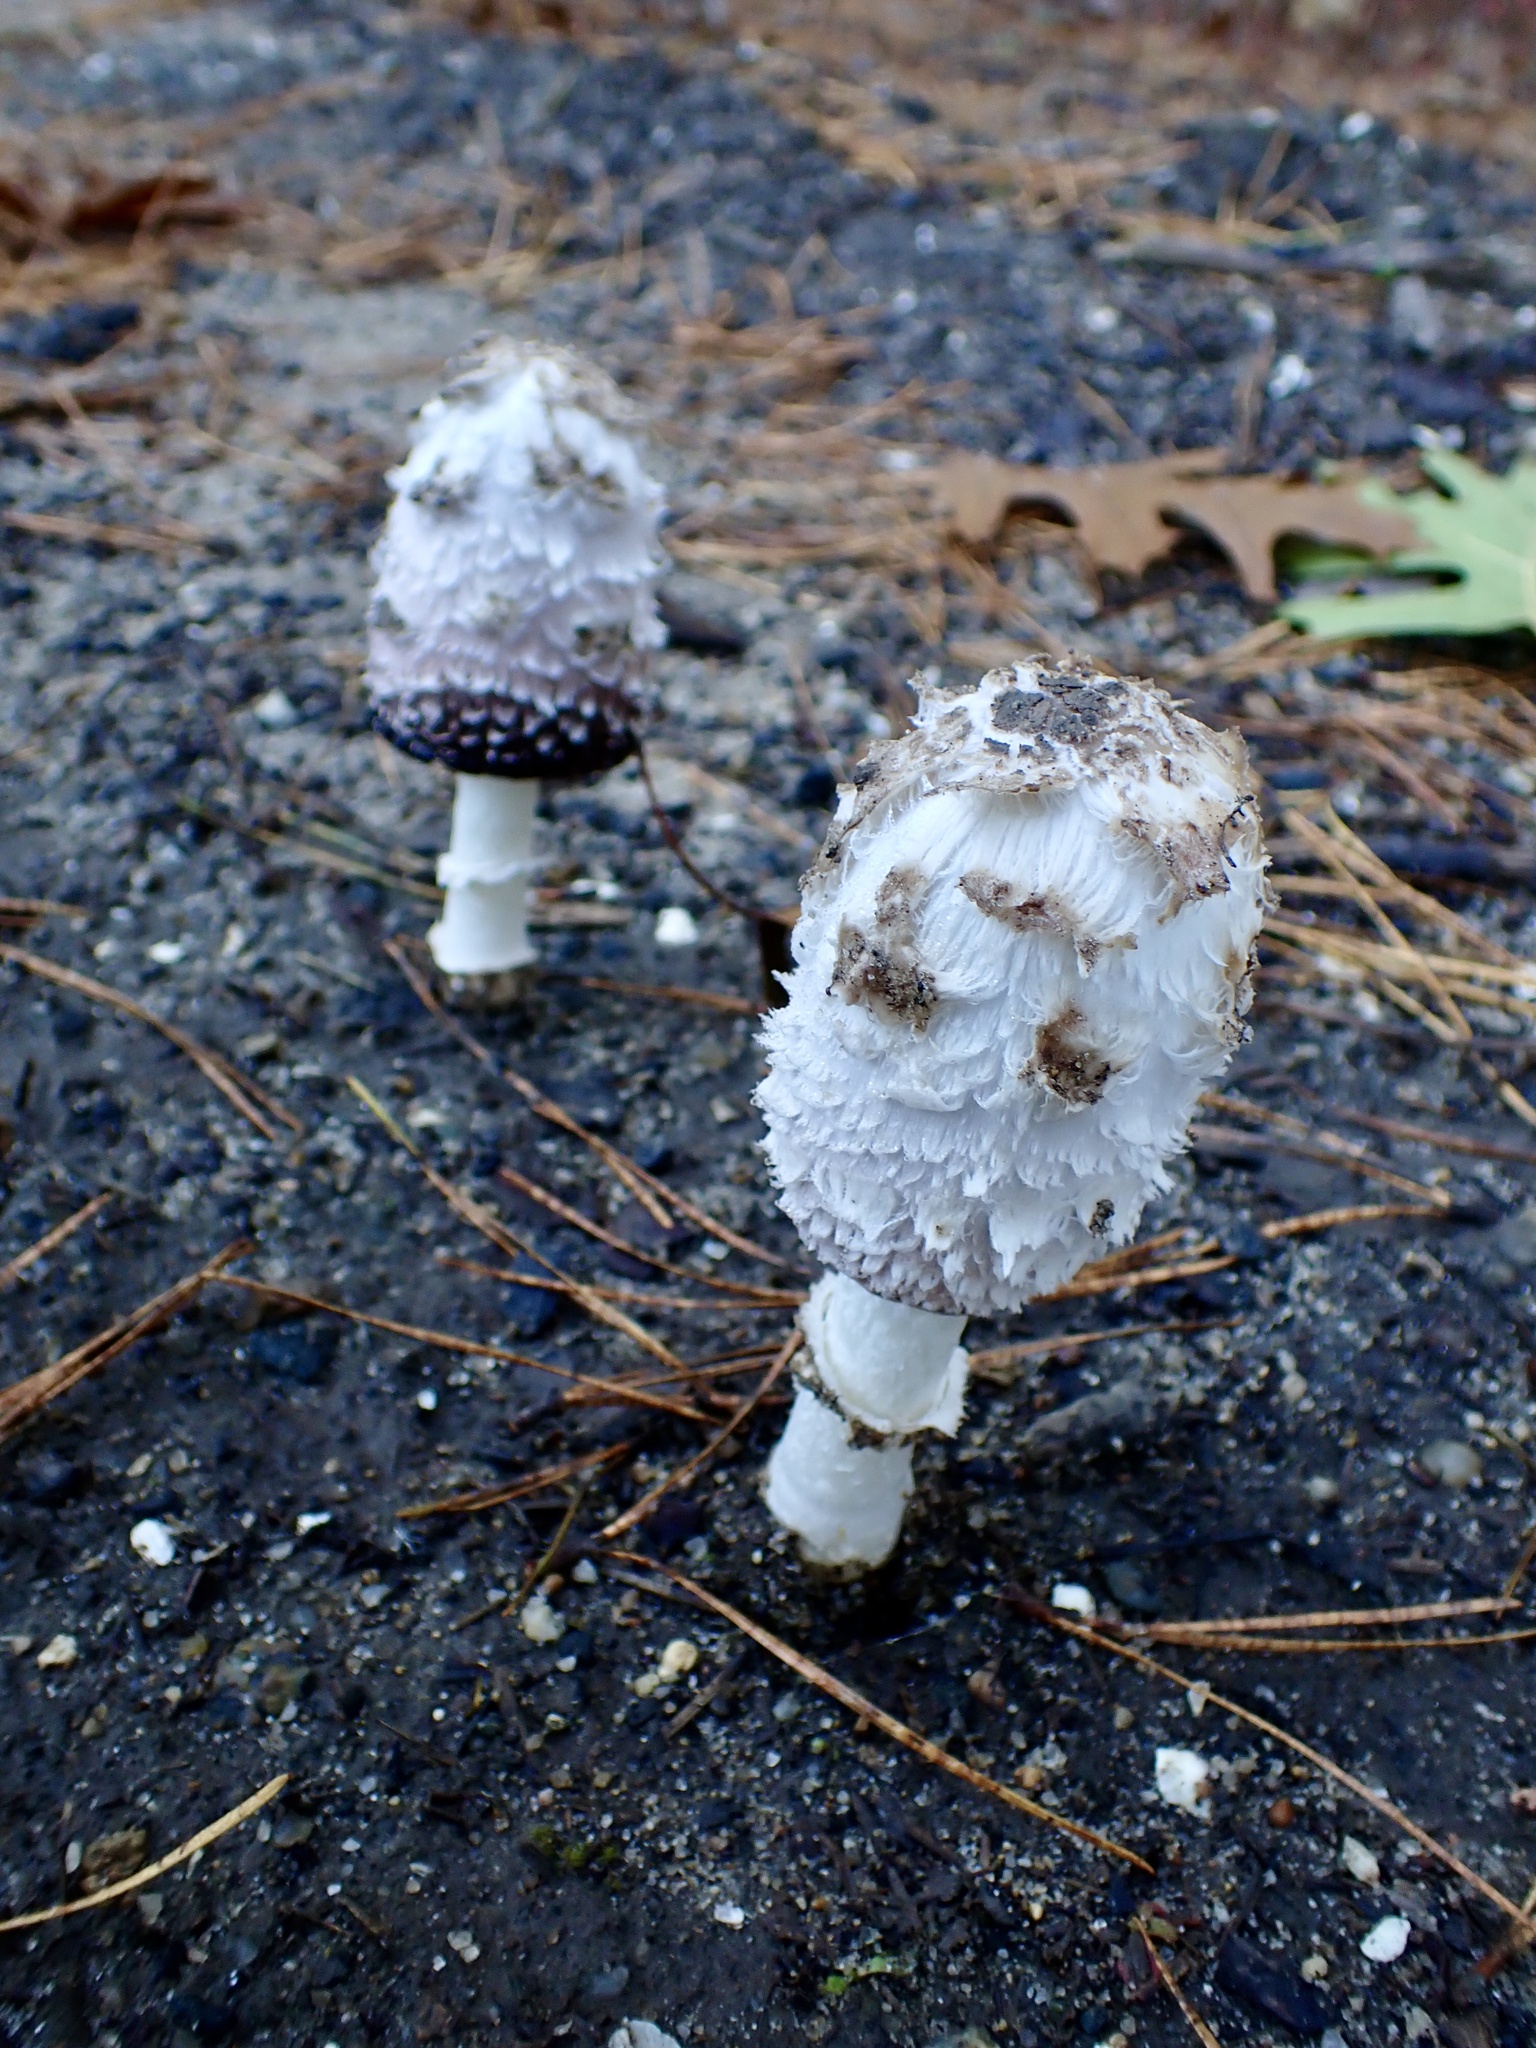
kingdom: Fungi
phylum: Basidiomycota
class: Agaricomycetes
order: Agaricales
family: Agaricaceae
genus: Coprinus
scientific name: Coprinus comatus
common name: Lawyer's wig
